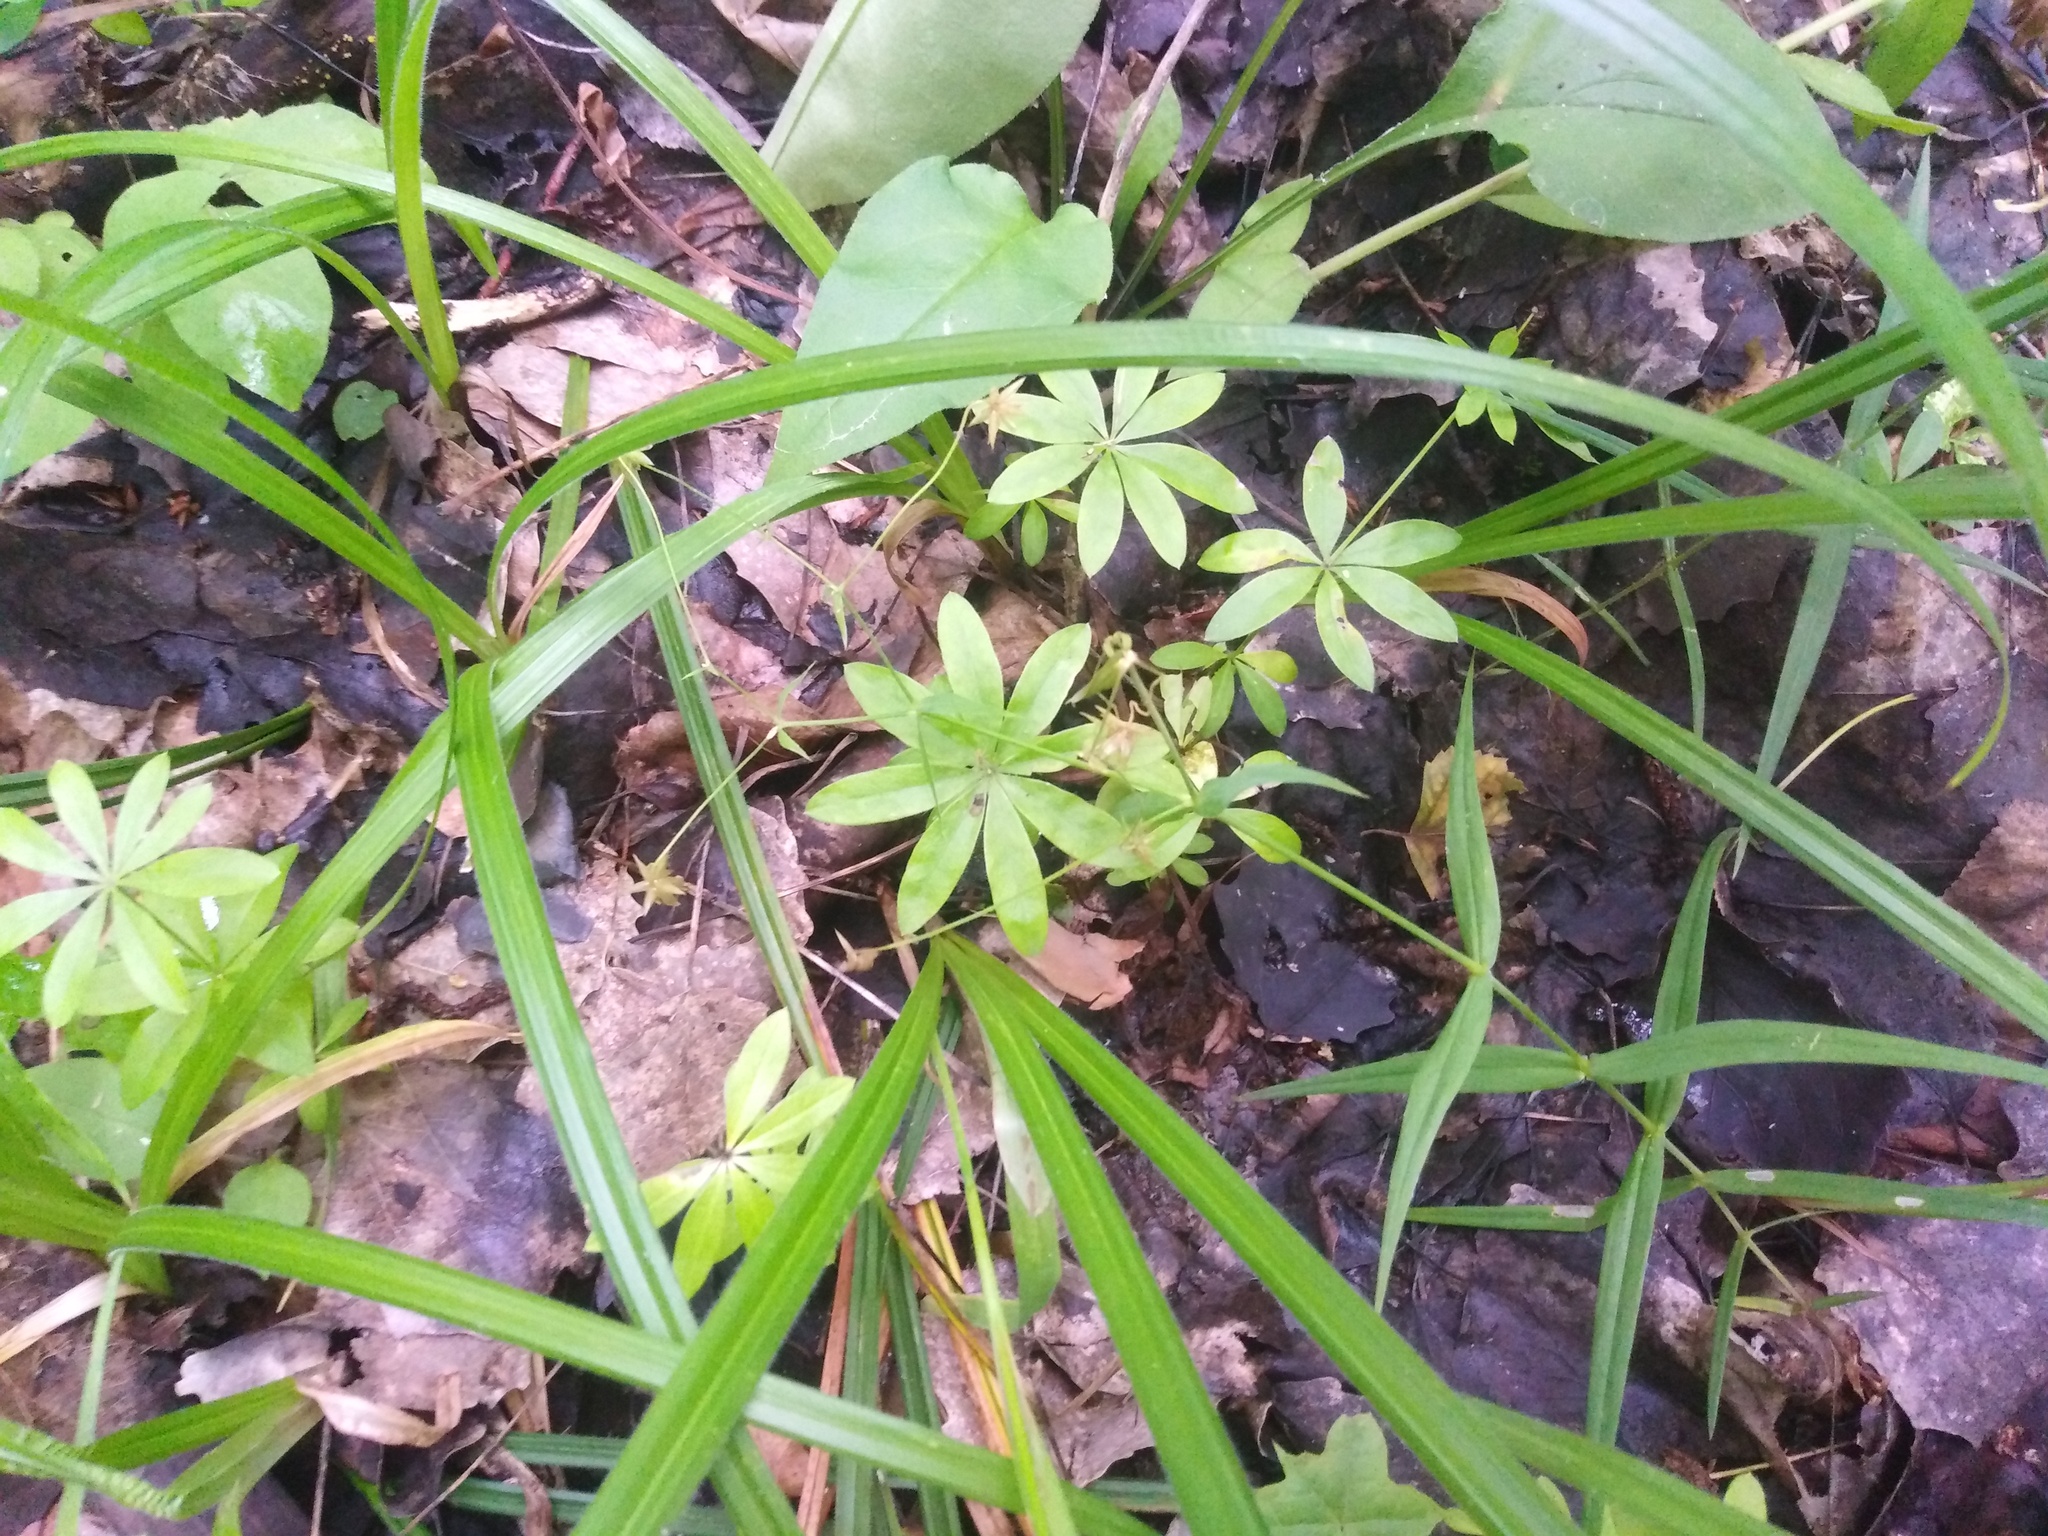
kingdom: Plantae
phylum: Tracheophyta
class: Magnoliopsida
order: Gentianales
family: Rubiaceae
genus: Galium
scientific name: Galium odoratum
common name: Sweet woodruff
